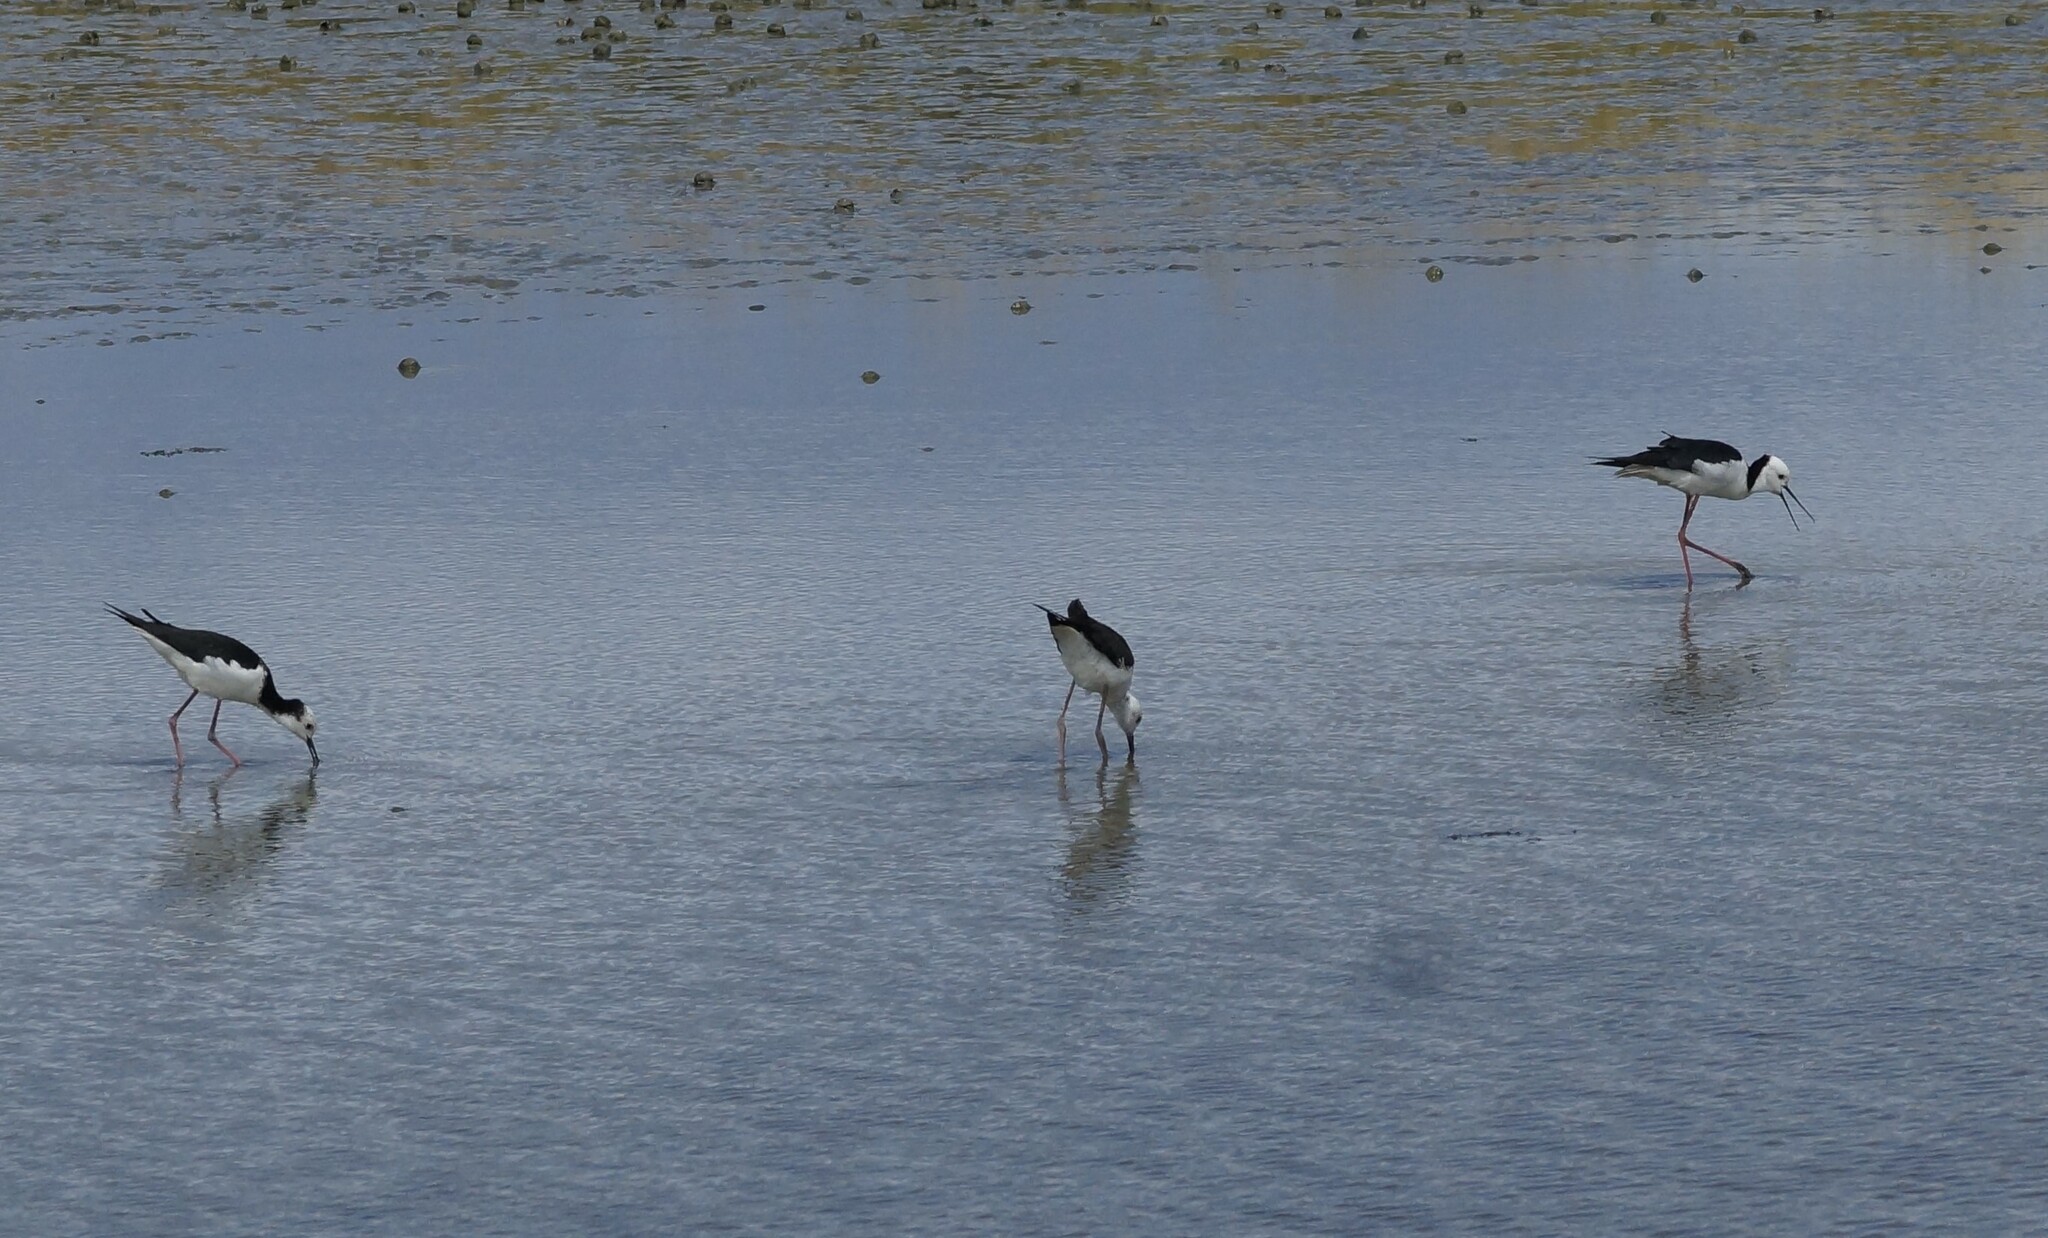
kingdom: Animalia
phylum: Chordata
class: Aves
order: Charadriiformes
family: Recurvirostridae
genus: Himantopus
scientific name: Himantopus leucocephalus
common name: White-headed stilt
